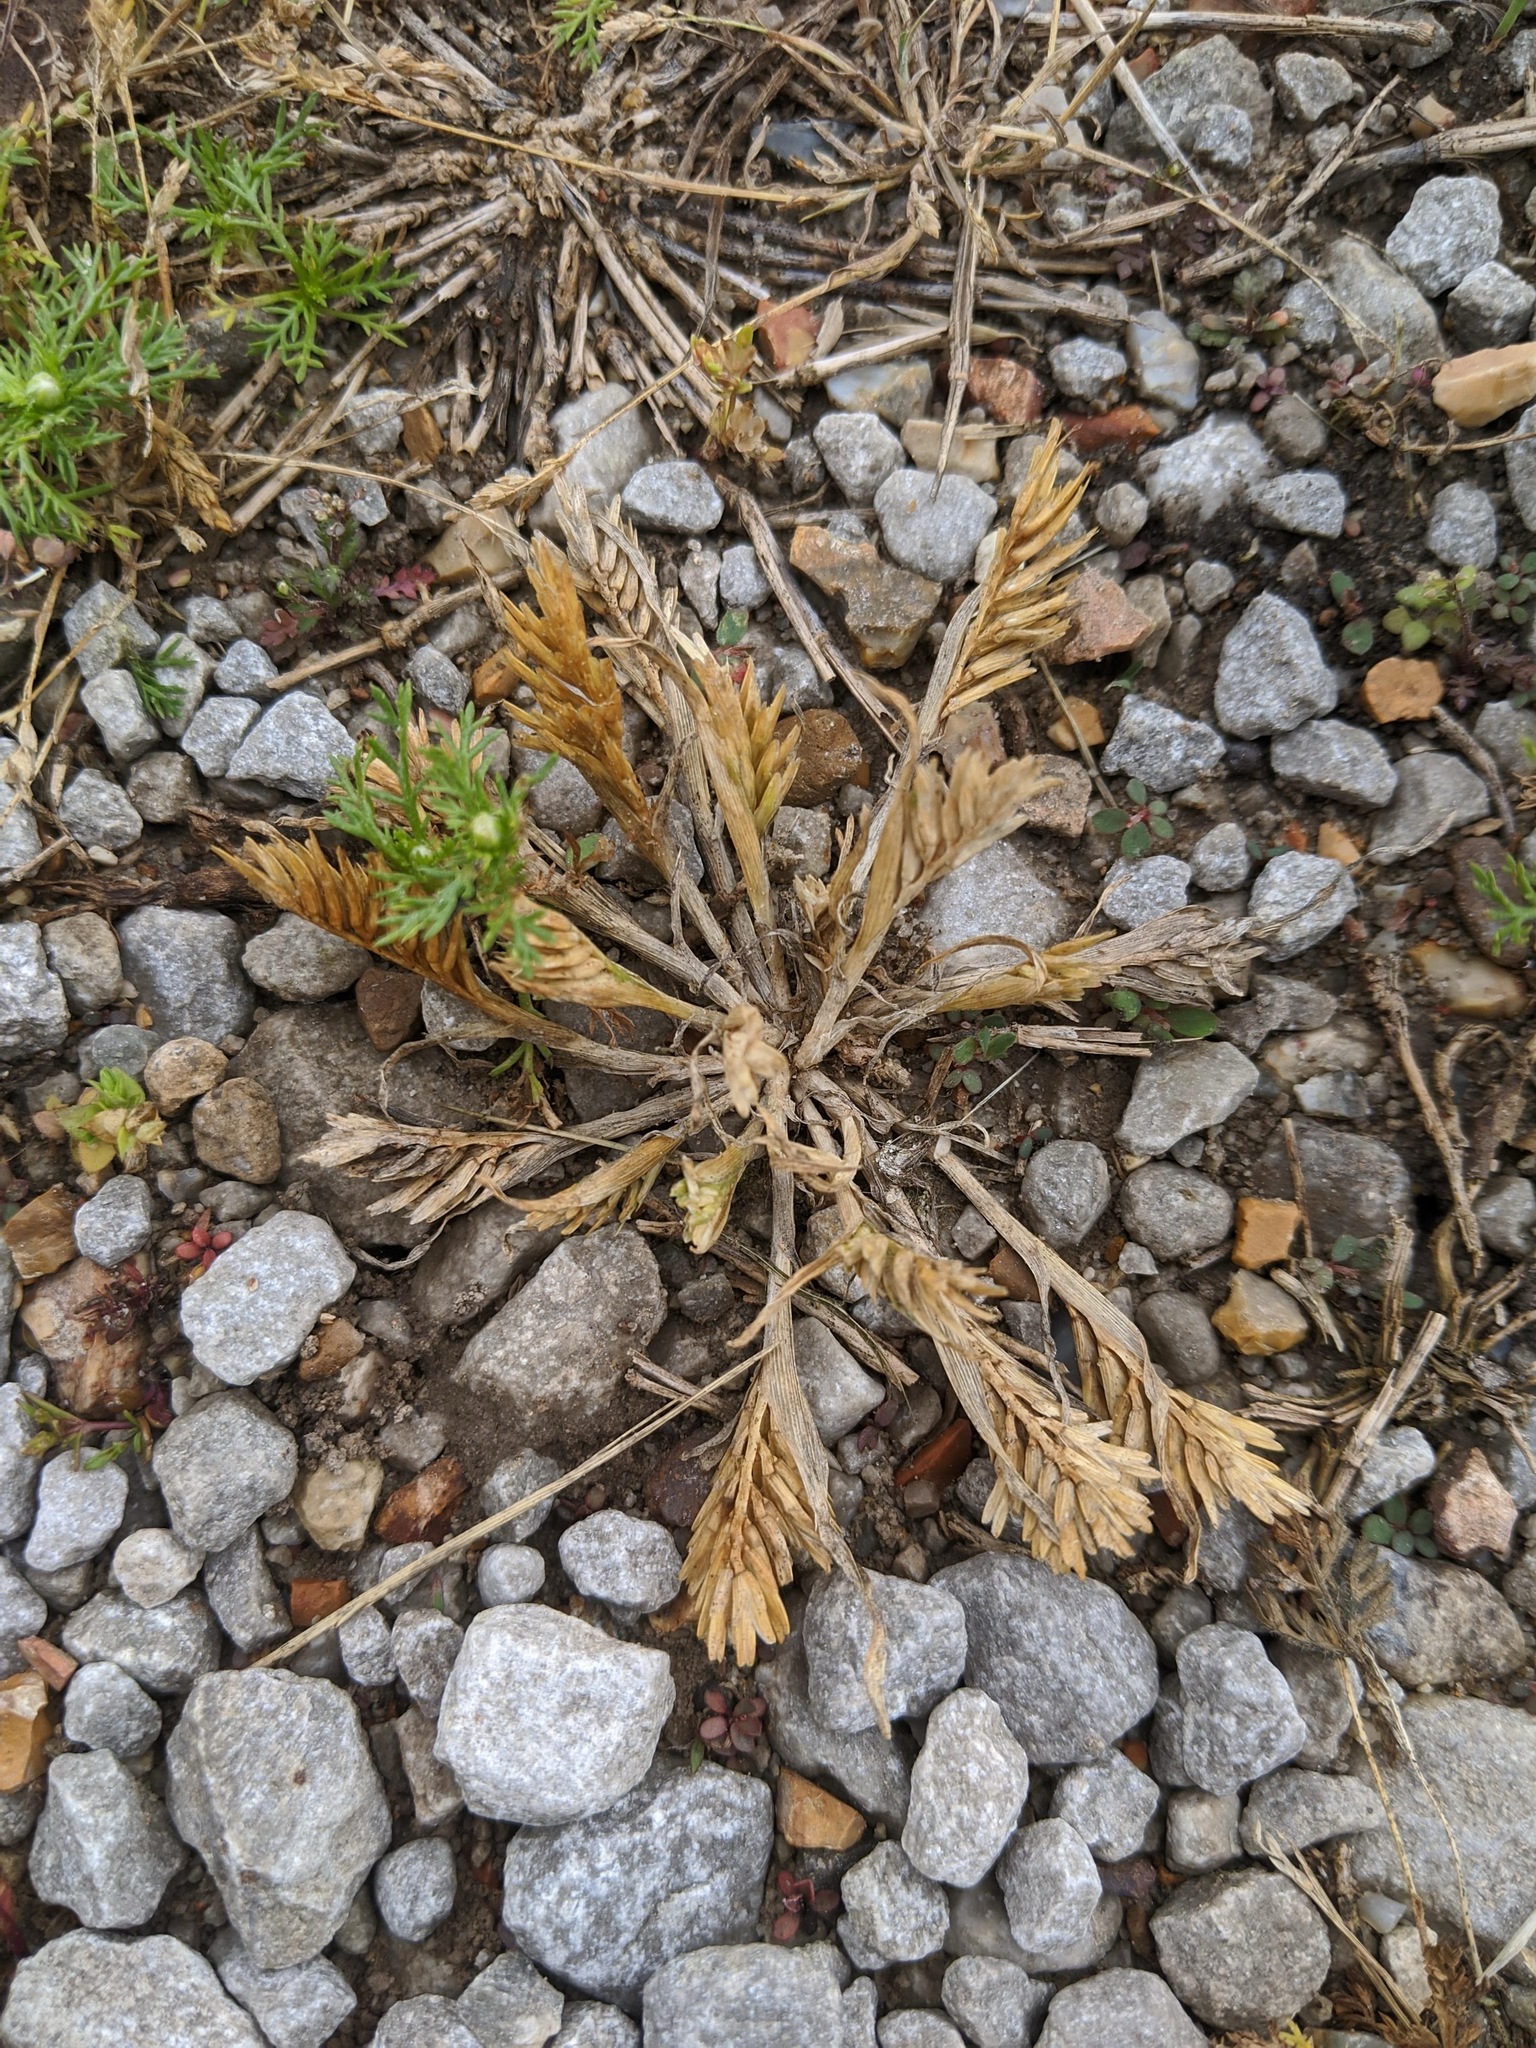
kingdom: Plantae
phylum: Tracheophyta
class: Liliopsida
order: Poales
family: Poaceae
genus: Sclerochloa
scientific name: Sclerochloa dura
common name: Common hardgrass
